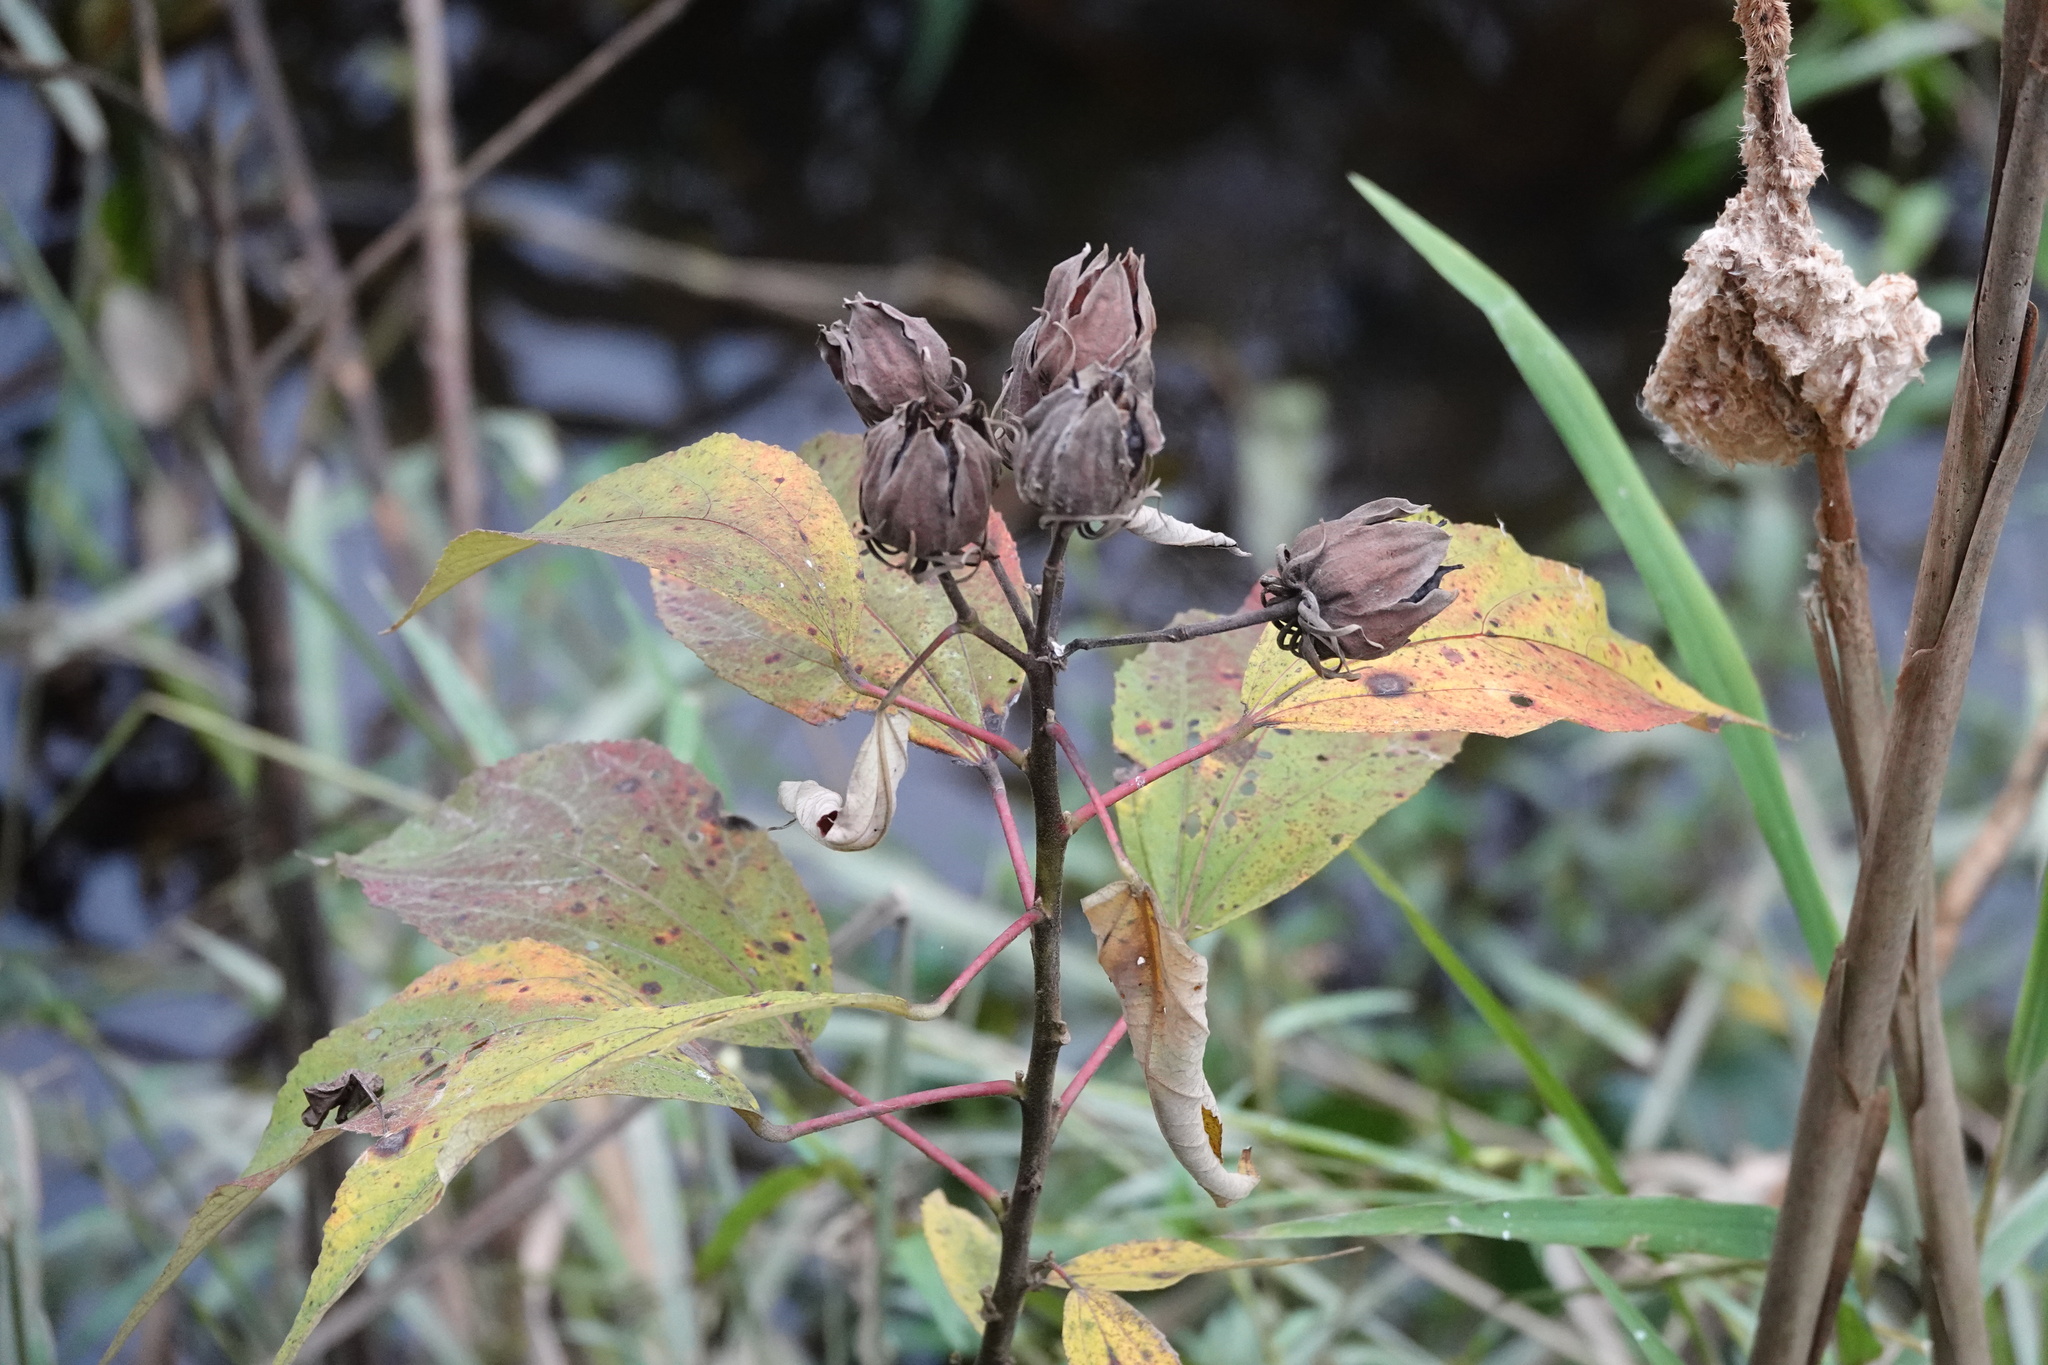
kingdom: Plantae
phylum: Tracheophyta
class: Magnoliopsida
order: Malvales
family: Malvaceae
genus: Hibiscus
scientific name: Hibiscus moscheutos
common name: Common rose-mallow
